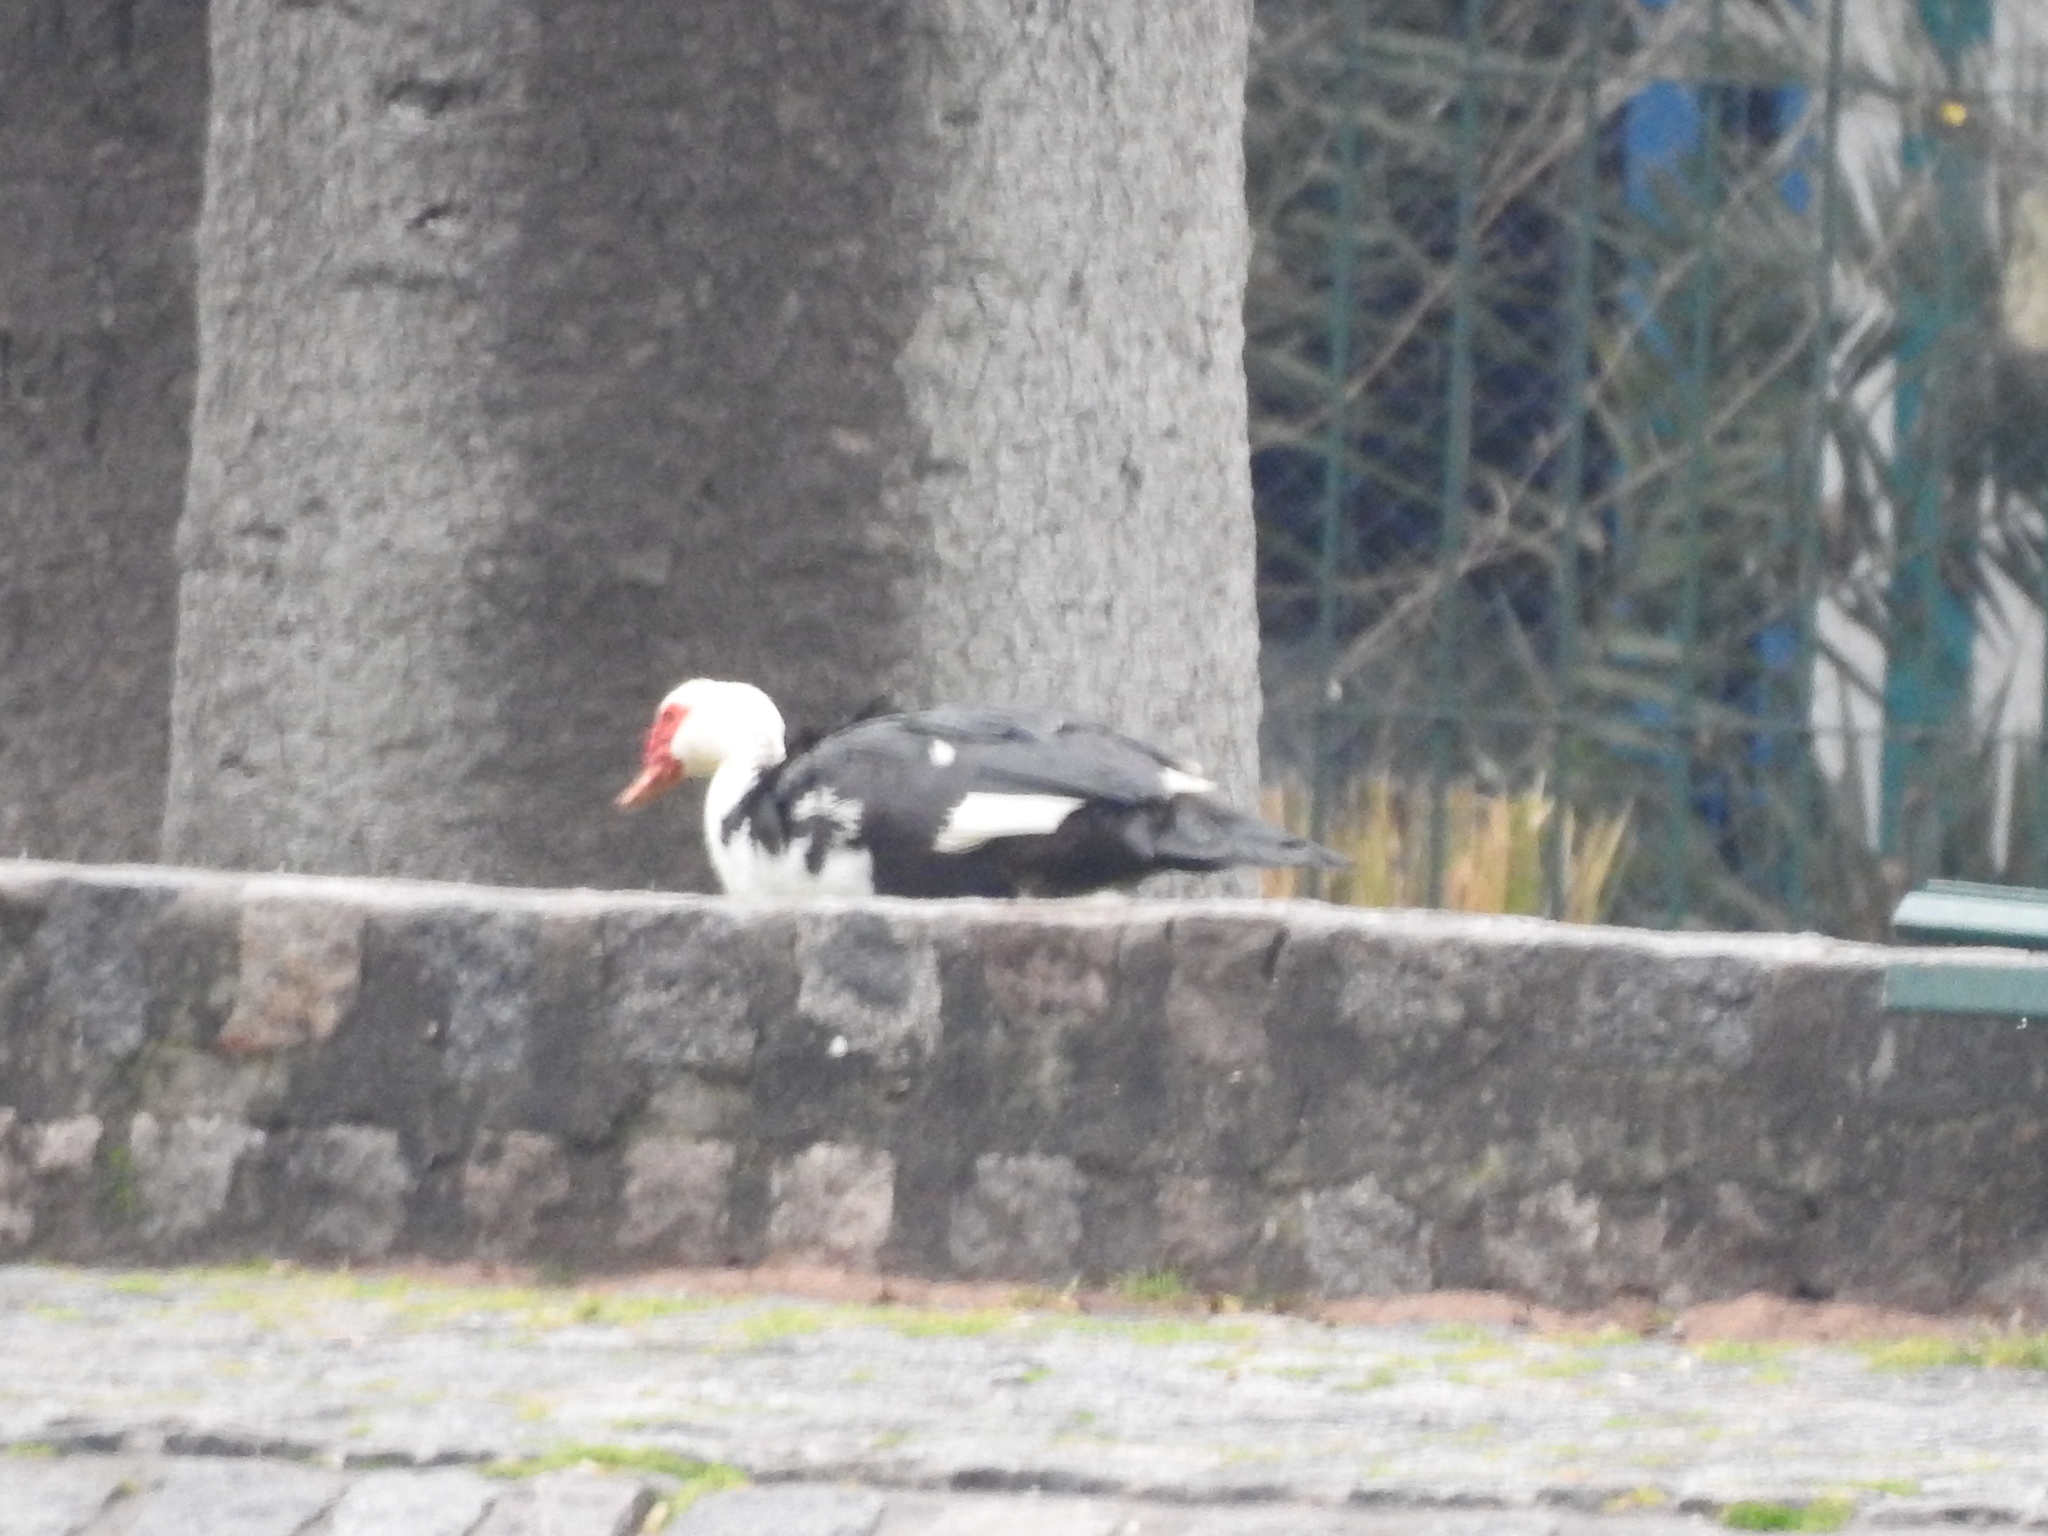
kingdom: Animalia
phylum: Chordata
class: Aves
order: Anseriformes
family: Anatidae
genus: Cairina
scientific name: Cairina moschata
